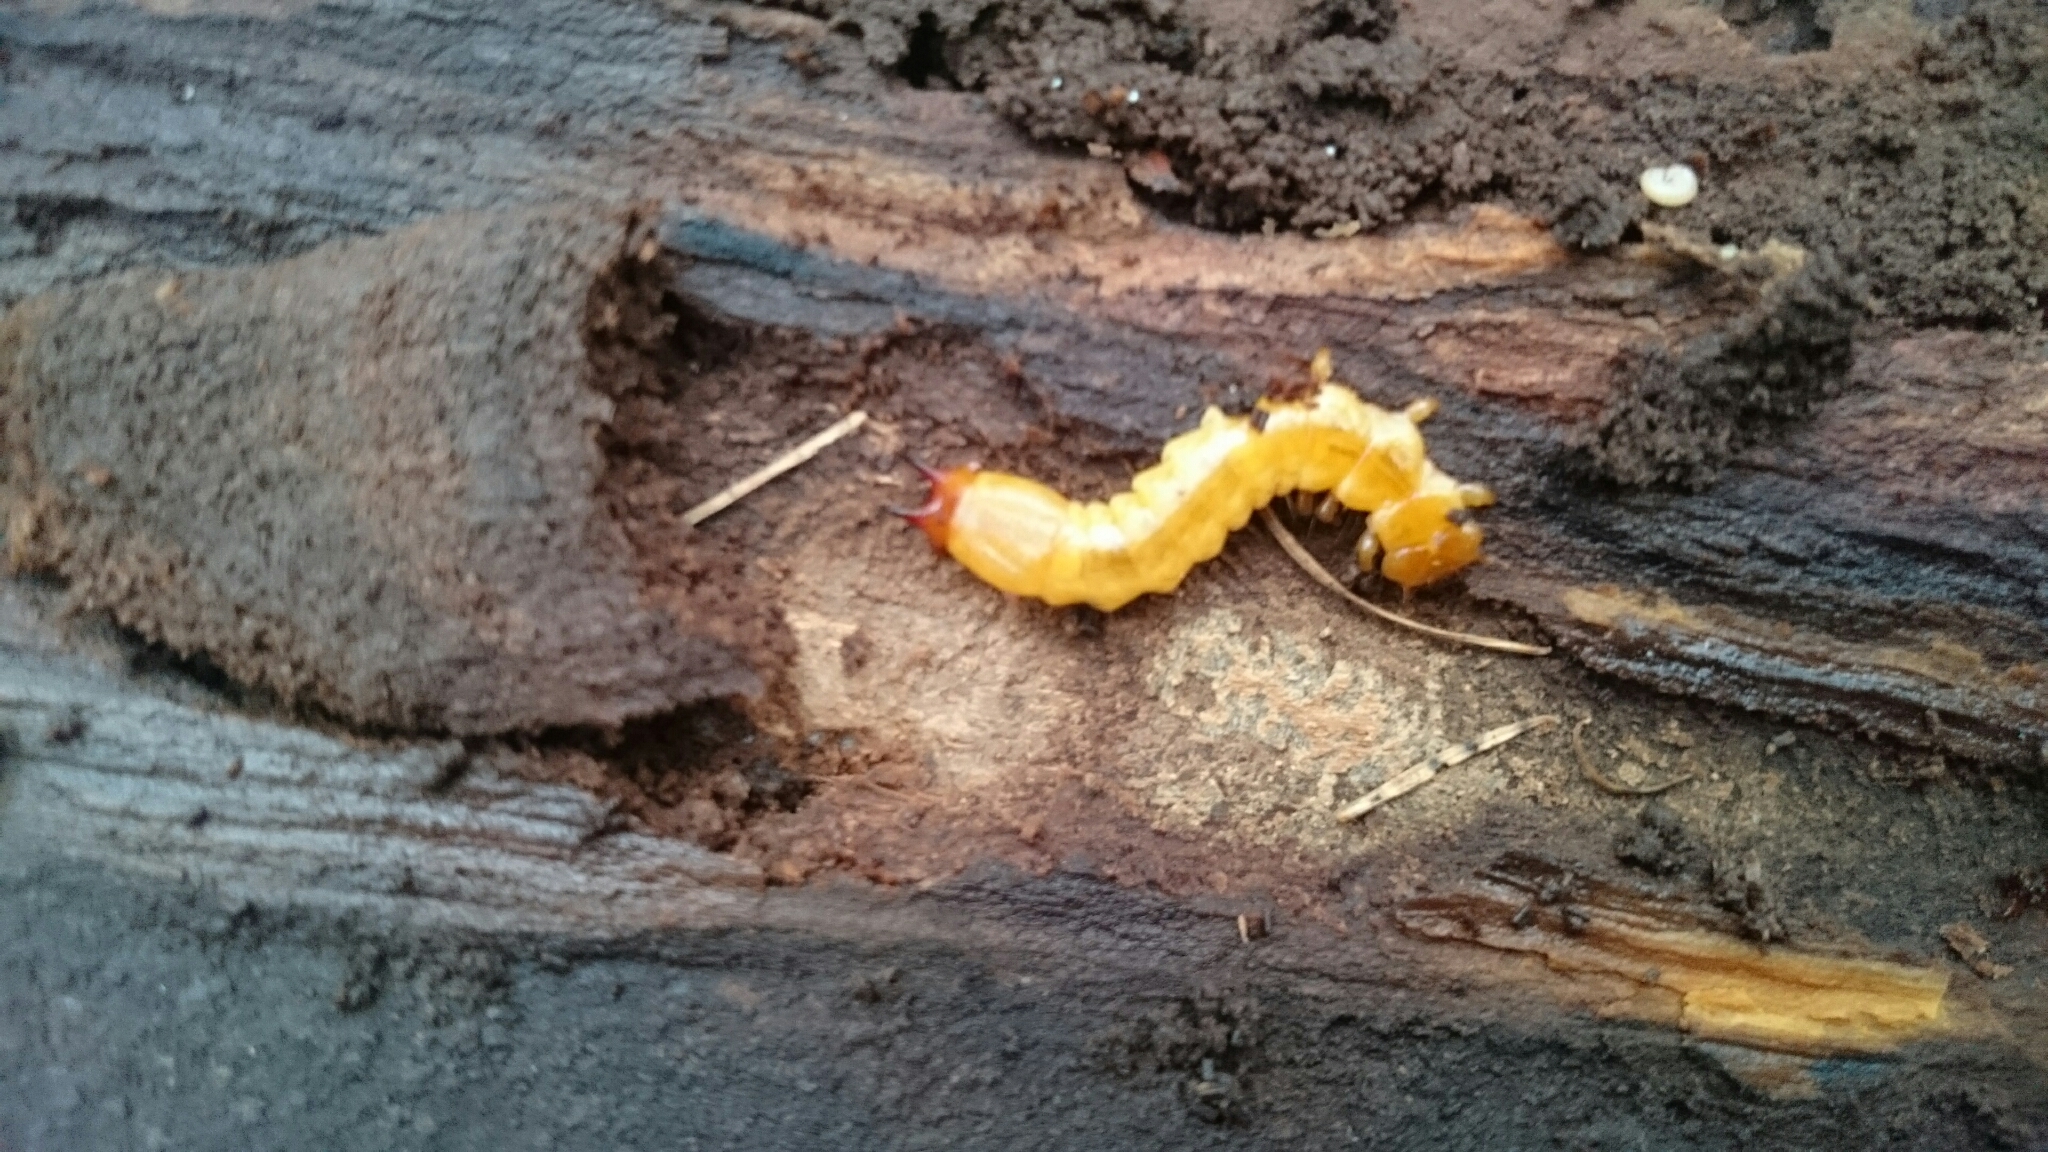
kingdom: Animalia
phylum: Arthropoda
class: Insecta
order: Coleoptera
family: Pyrochroidae
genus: Pyrochroa
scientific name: Pyrochroa coccinea
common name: Black-headed cardinal beetle
